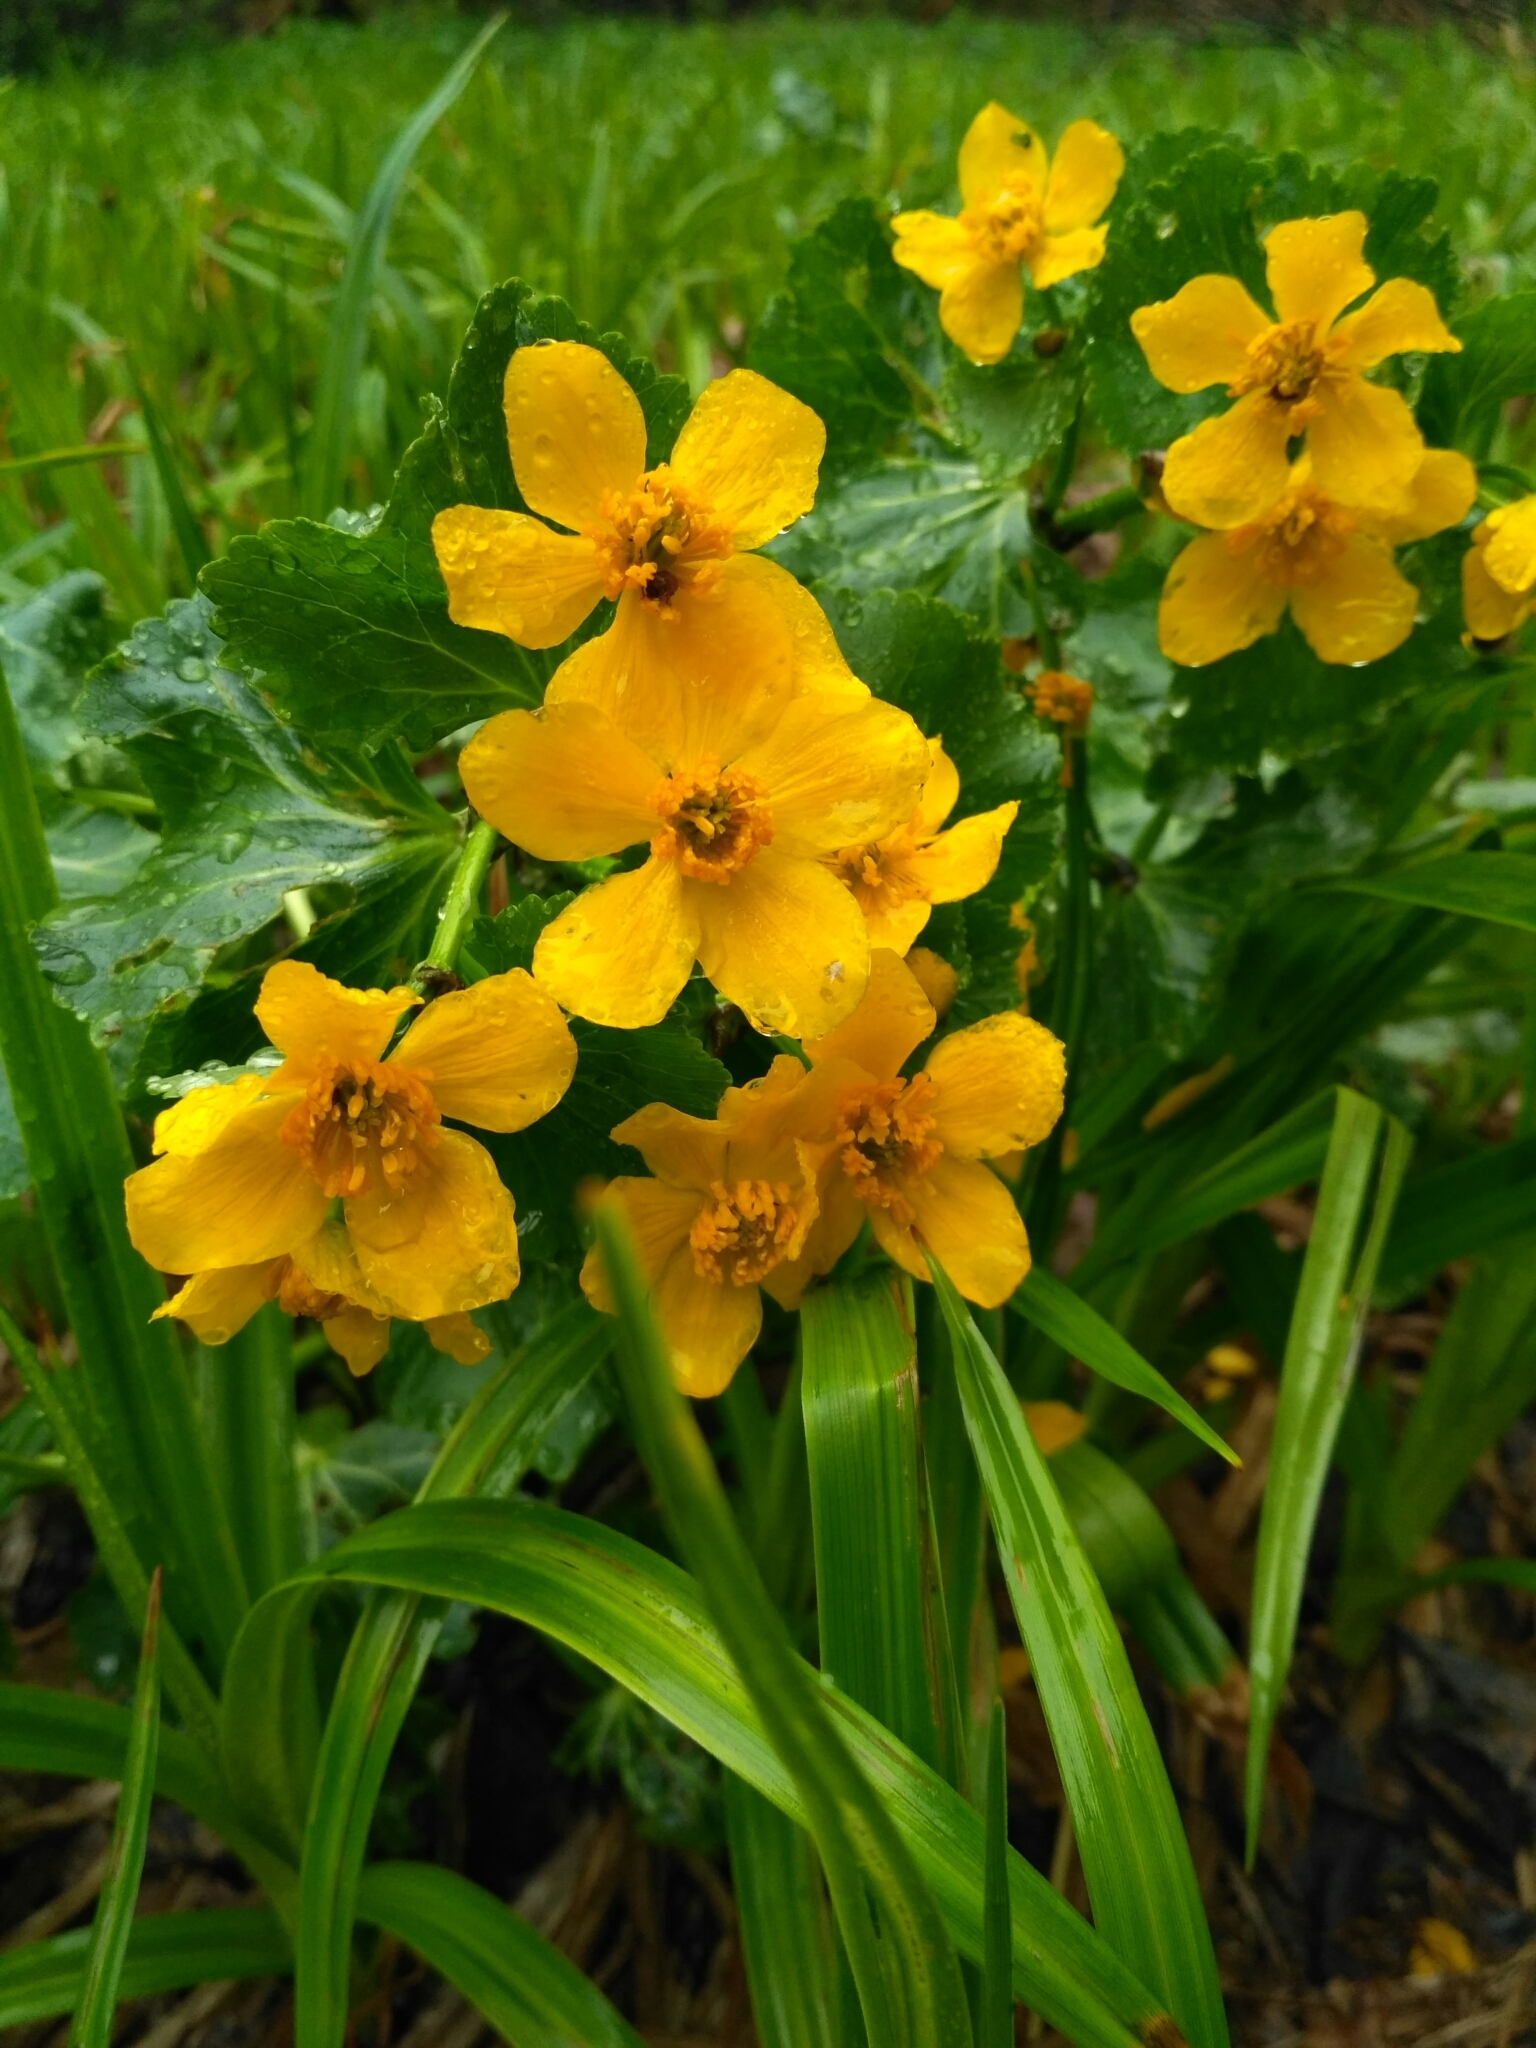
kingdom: Plantae
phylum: Tracheophyta
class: Magnoliopsida
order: Ranunculales
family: Ranunculaceae
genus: Caltha
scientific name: Caltha palustris
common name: Marsh marigold
